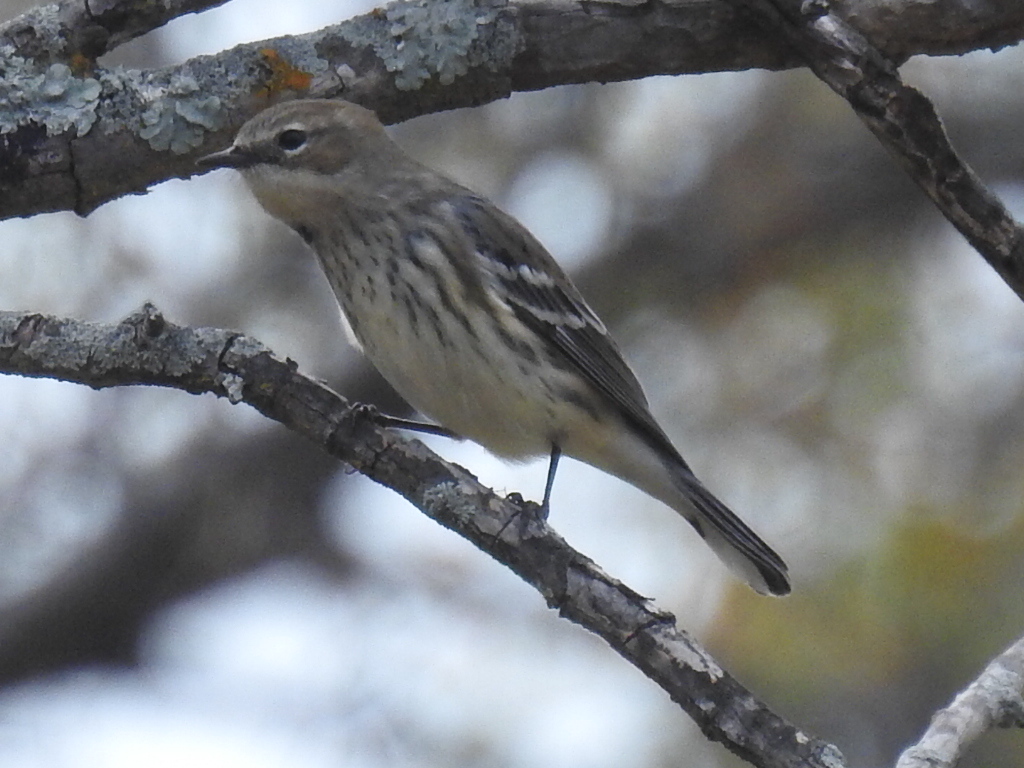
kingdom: Animalia
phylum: Chordata
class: Aves
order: Passeriformes
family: Parulidae
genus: Setophaga
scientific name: Setophaga coronata
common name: Myrtle warbler
